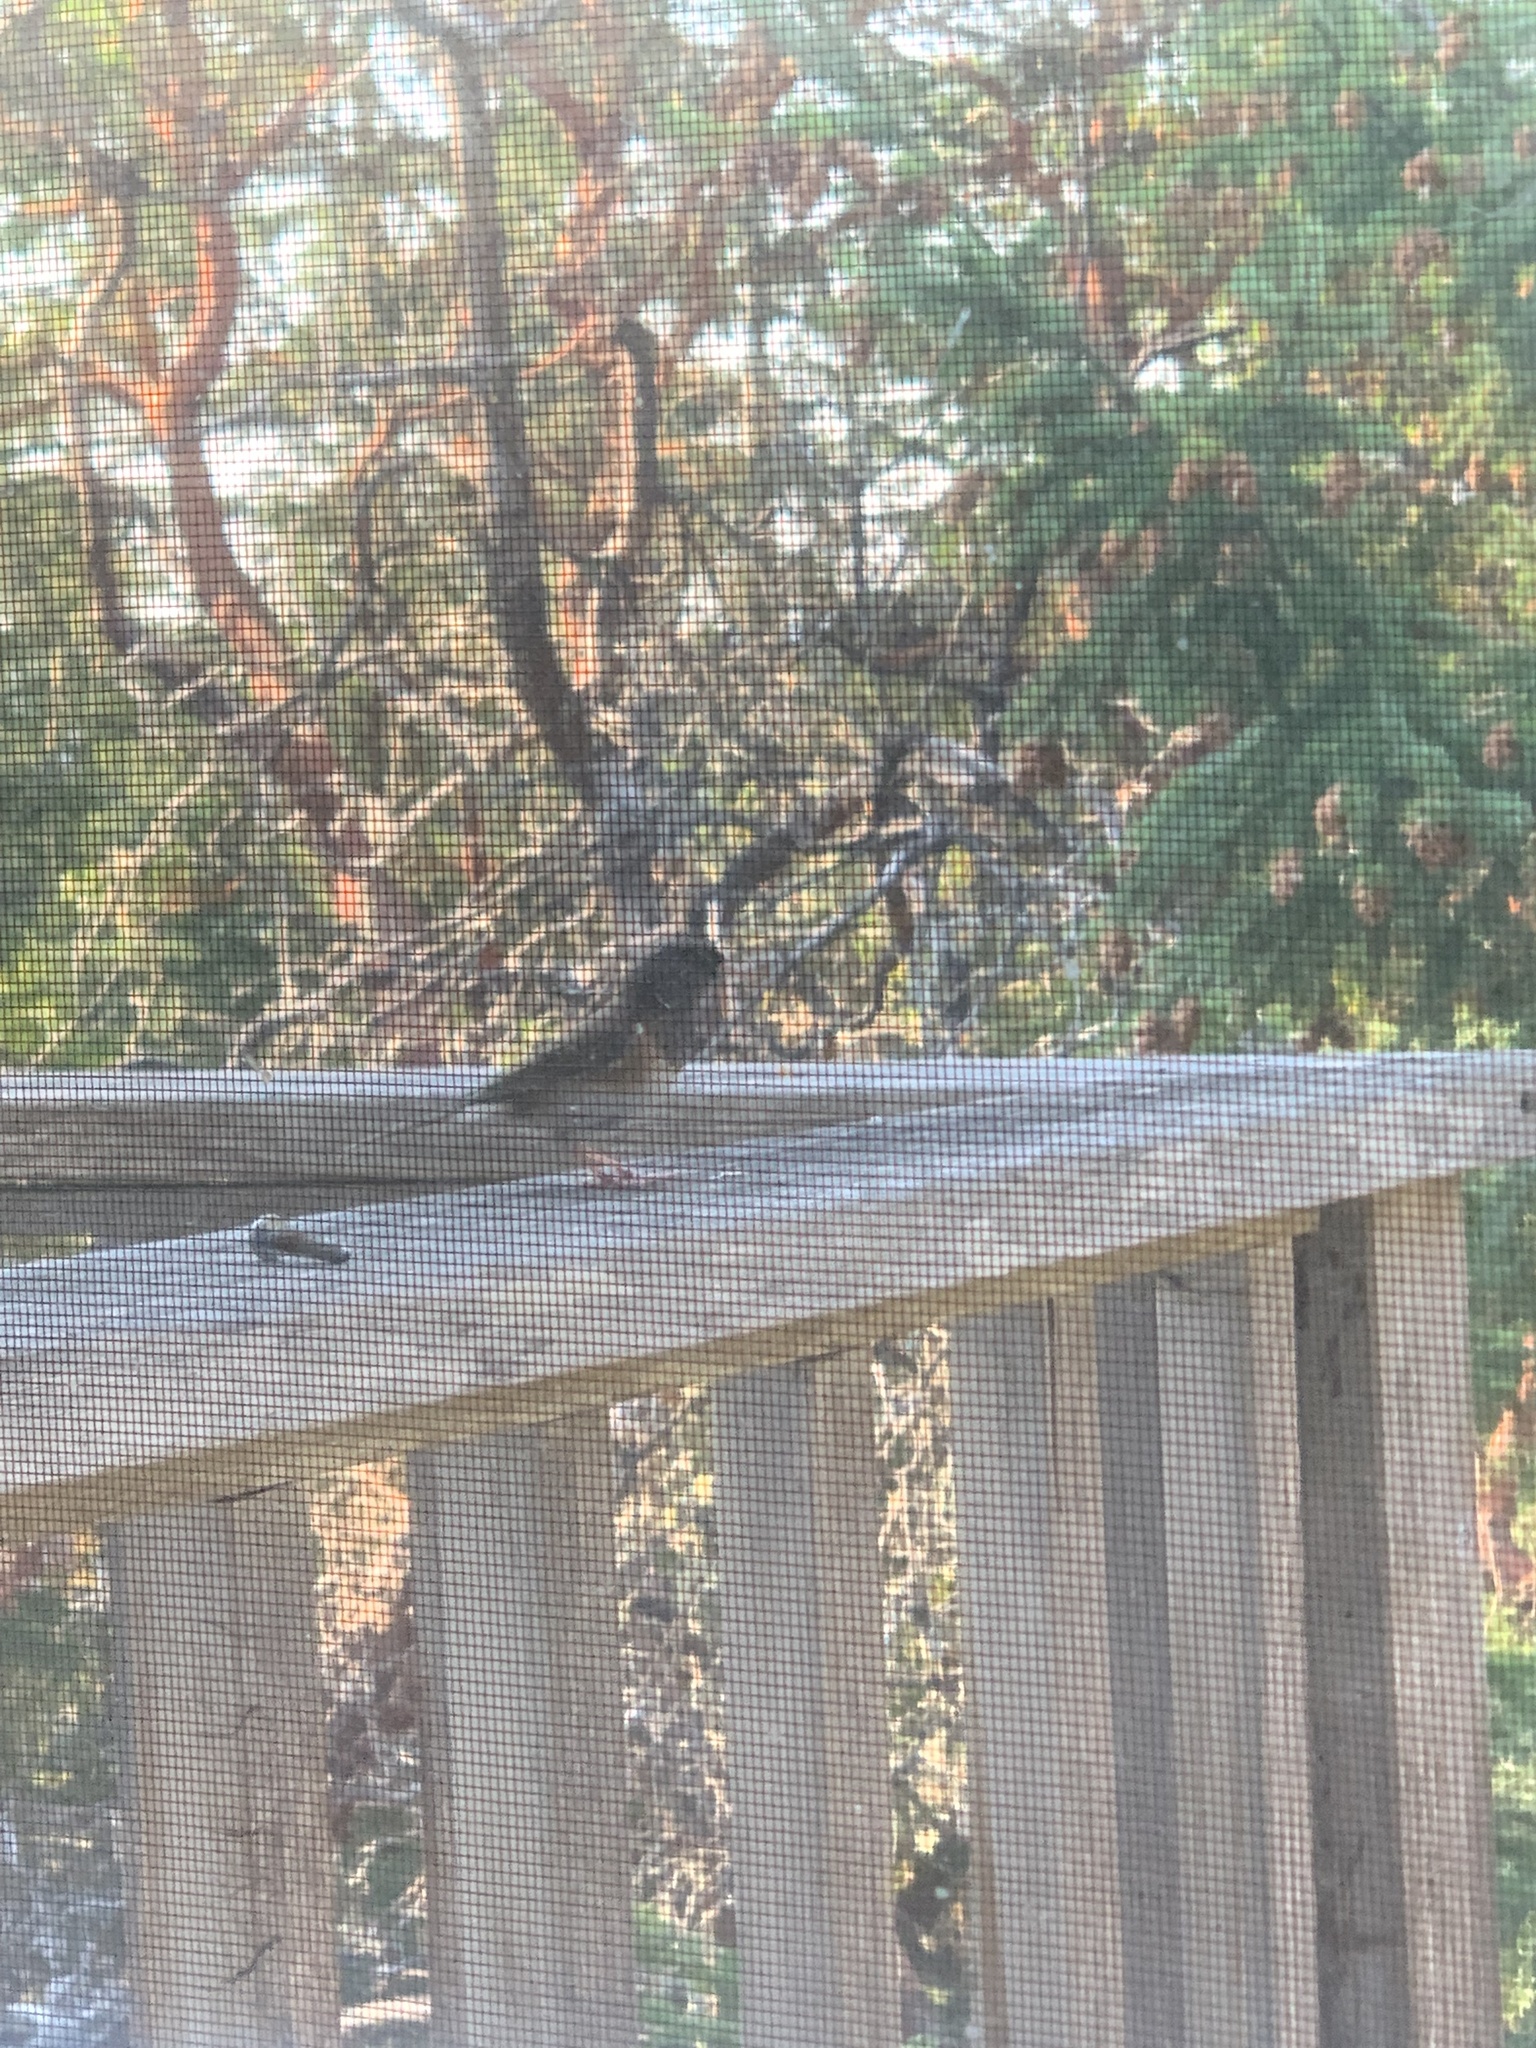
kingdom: Animalia
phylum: Chordata
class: Aves
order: Passeriformes
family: Passerellidae
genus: Junco
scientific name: Junco hyemalis
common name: Dark-eyed junco
